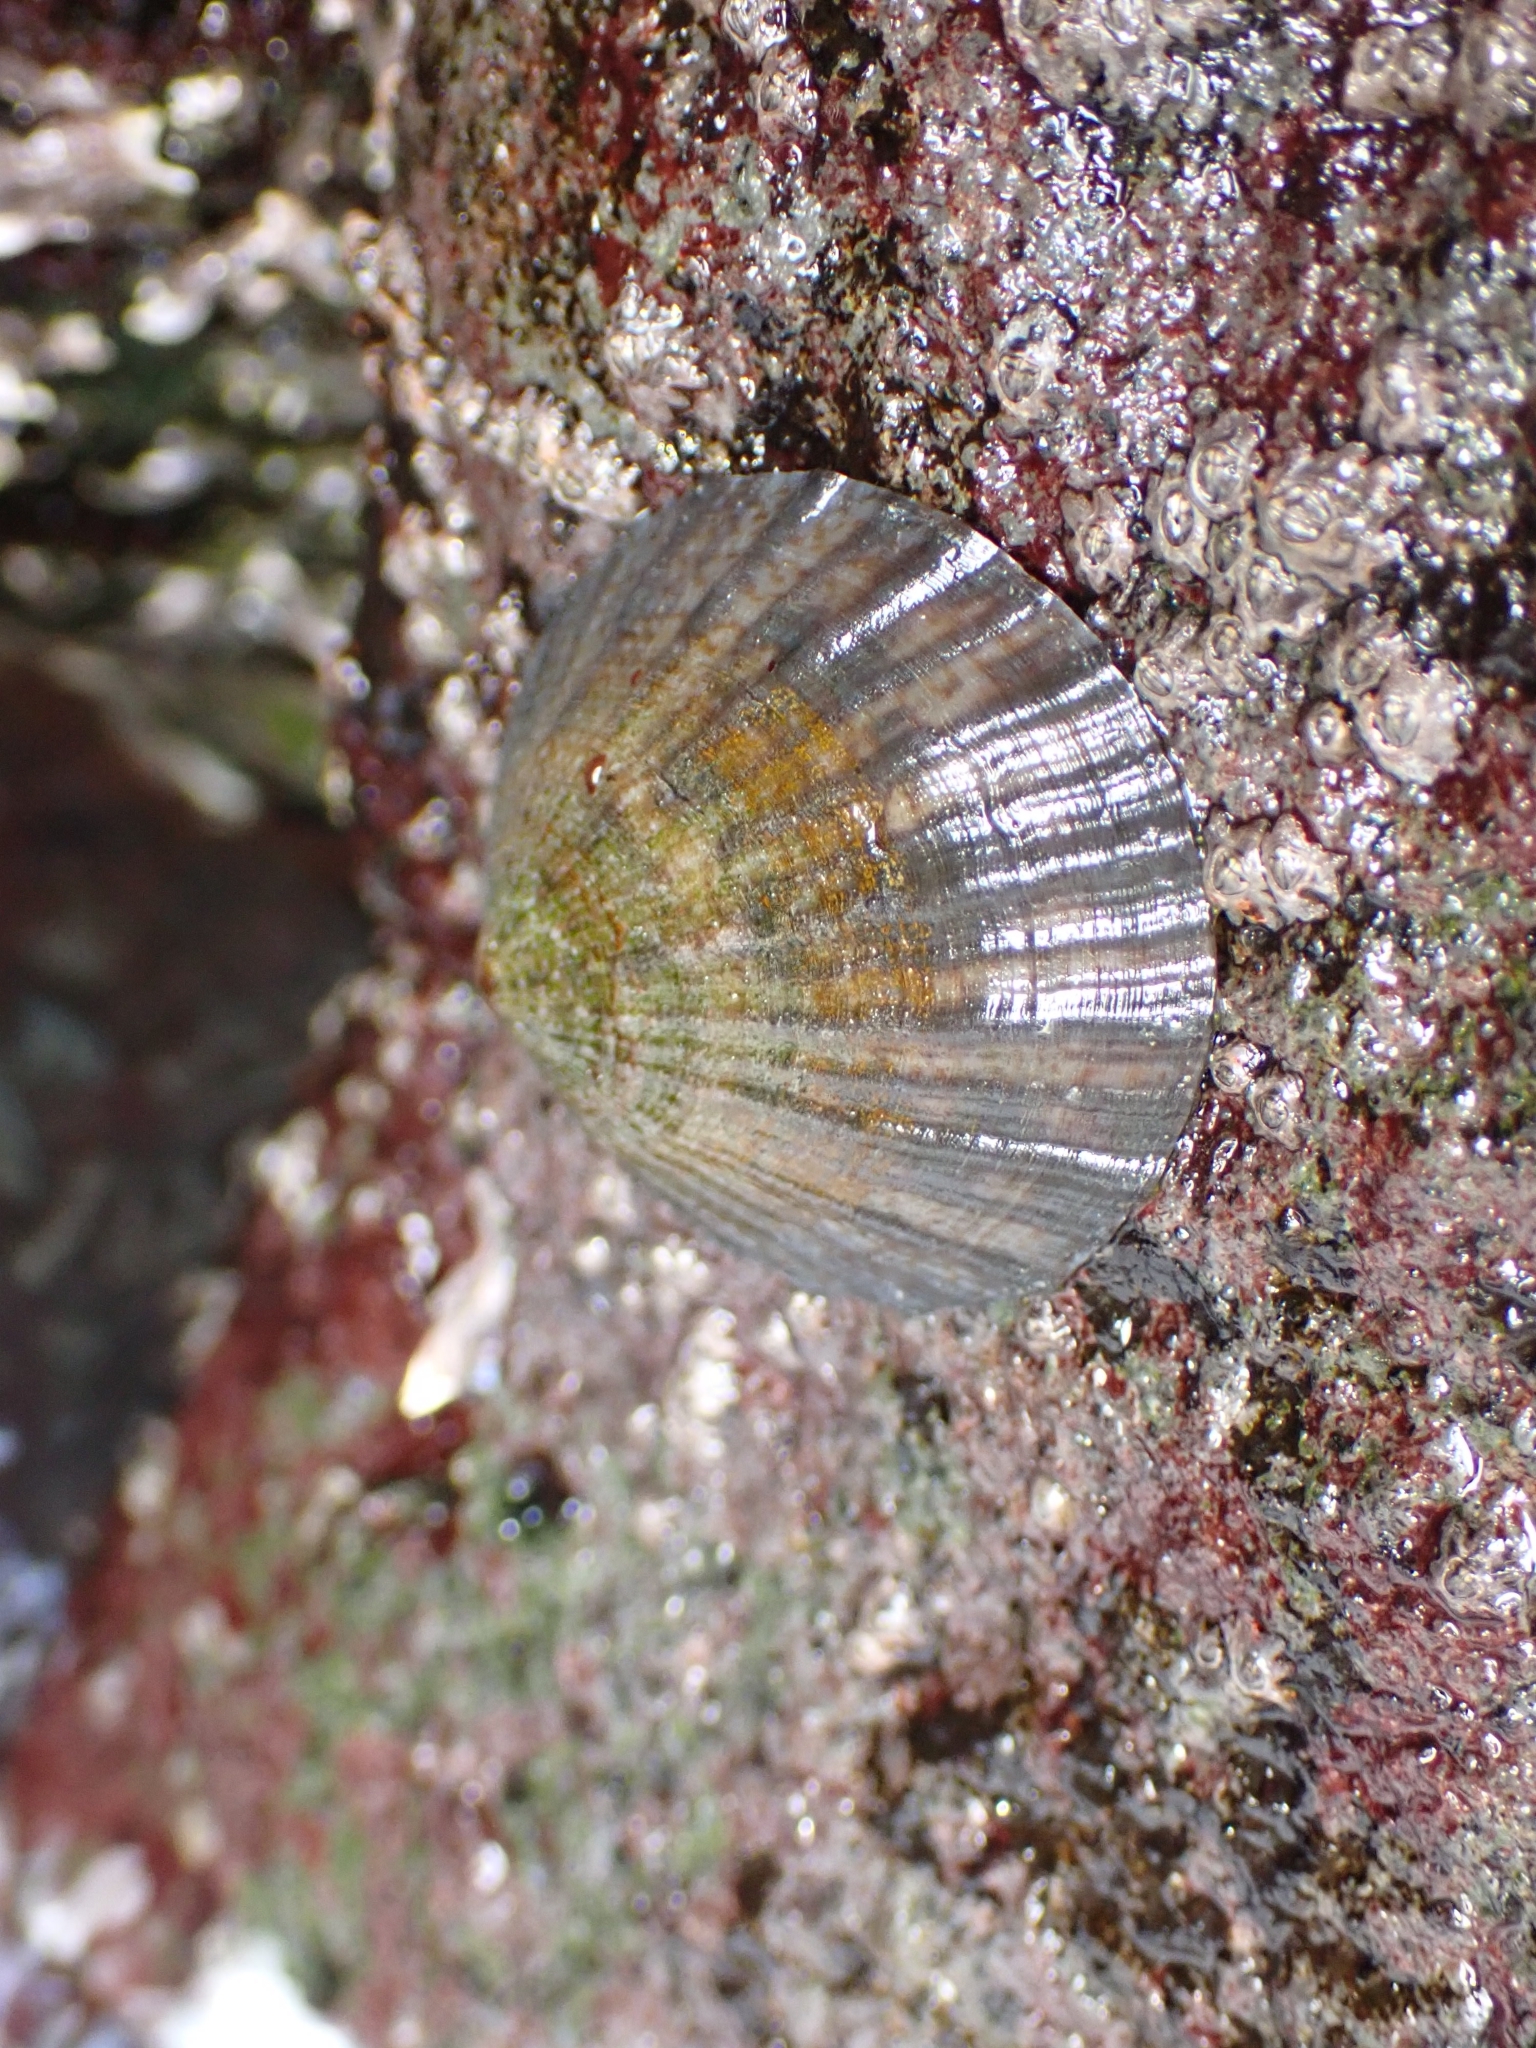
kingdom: Animalia
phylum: Mollusca
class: Gastropoda
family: Nacellidae
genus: Cellana
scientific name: Cellana radians
